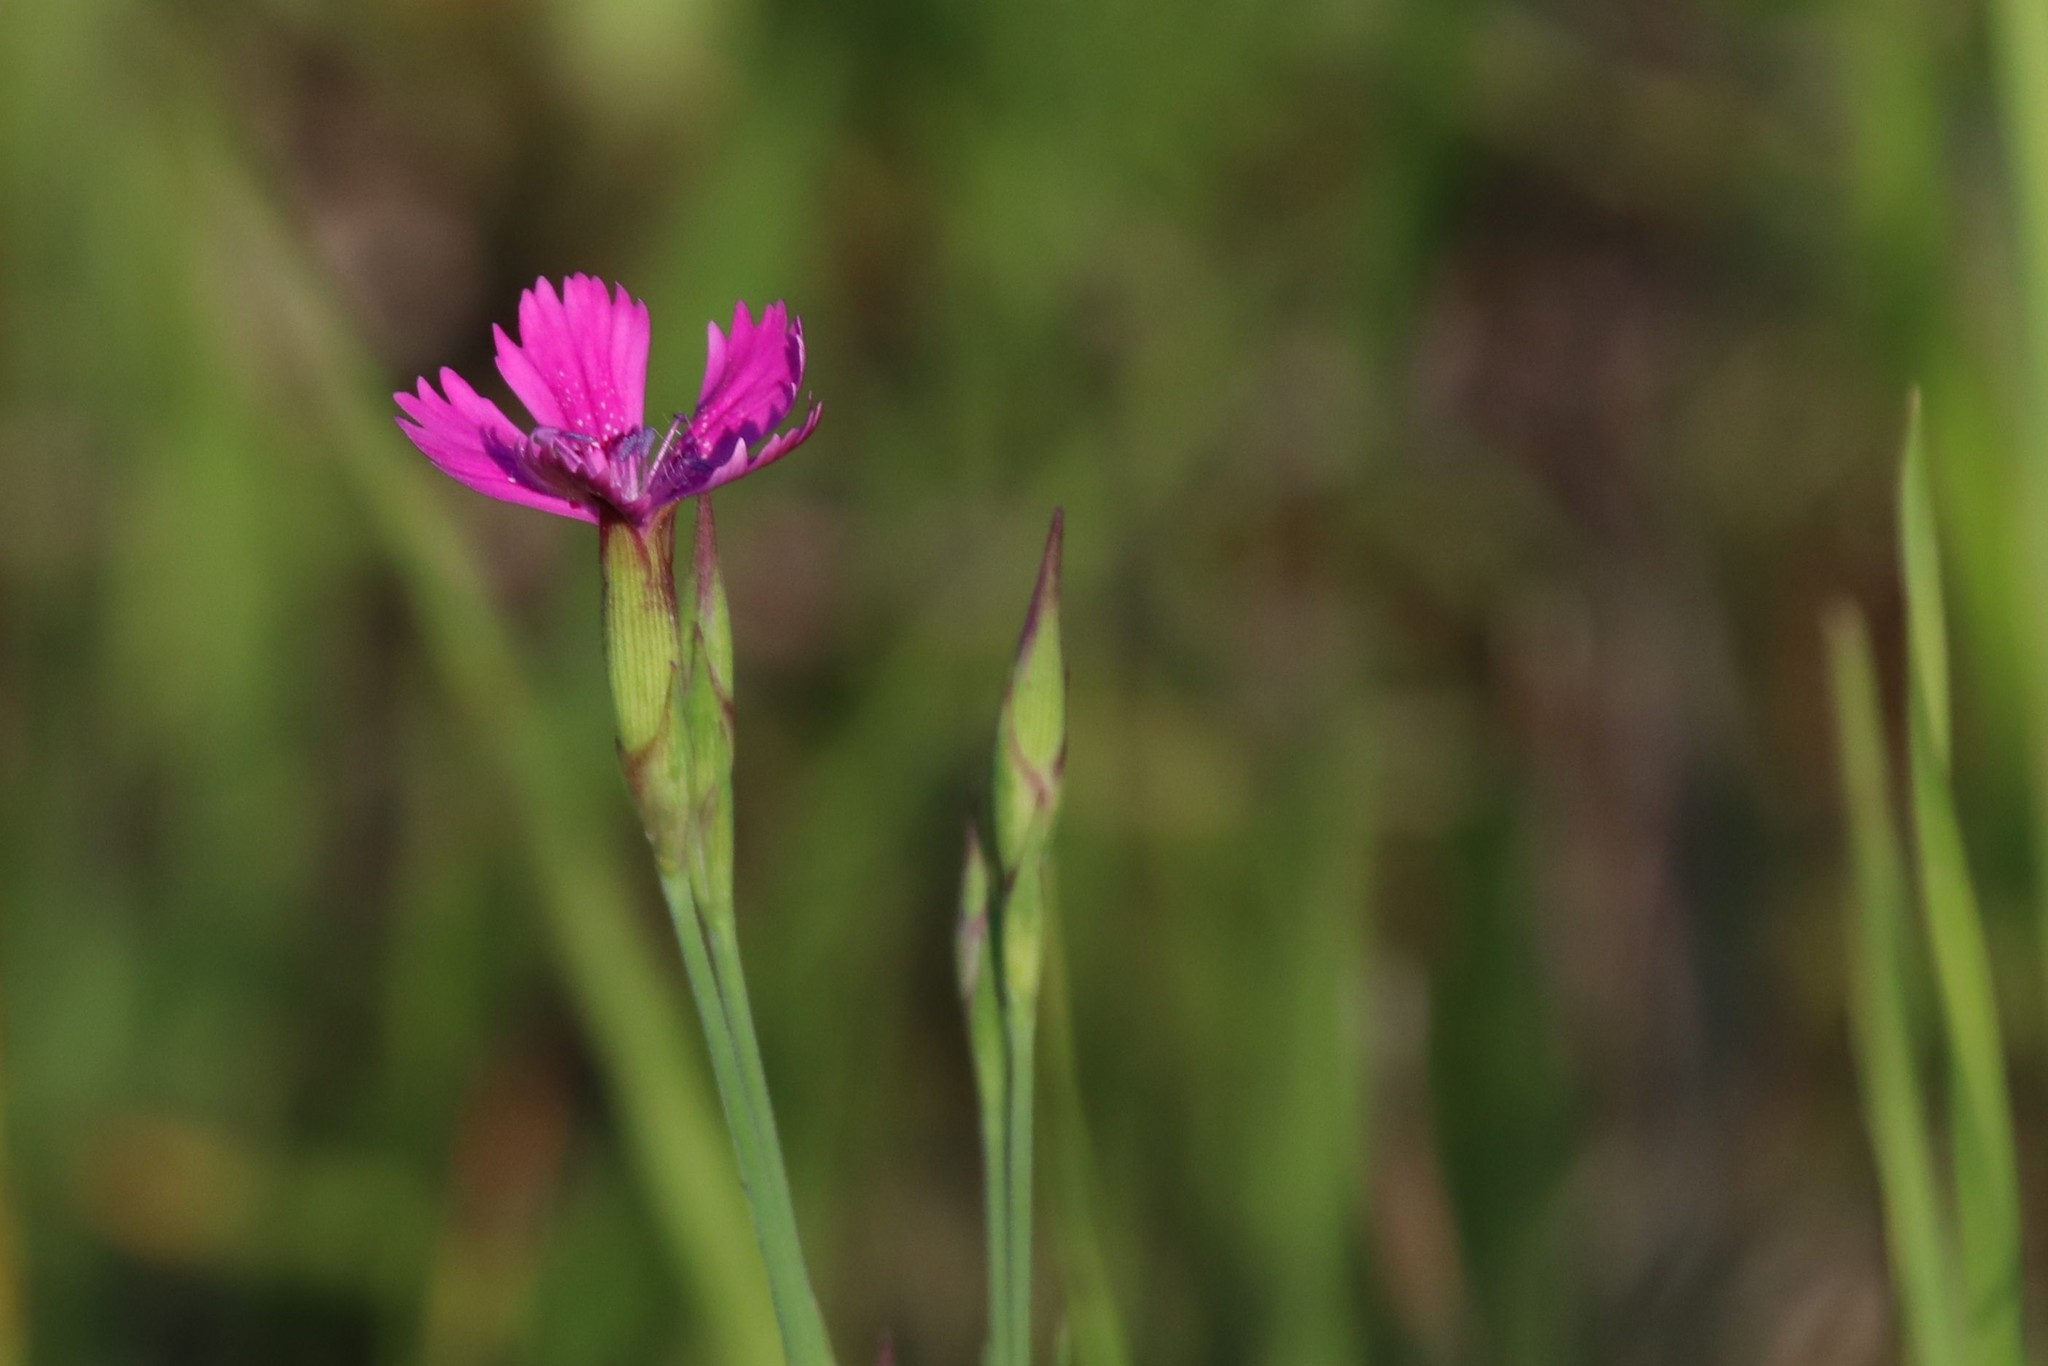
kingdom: Plantae
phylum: Tracheophyta
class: Magnoliopsida
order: Caryophyllales
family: Caryophyllaceae
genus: Dianthus
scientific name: Dianthus deltoides
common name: Maiden pink
